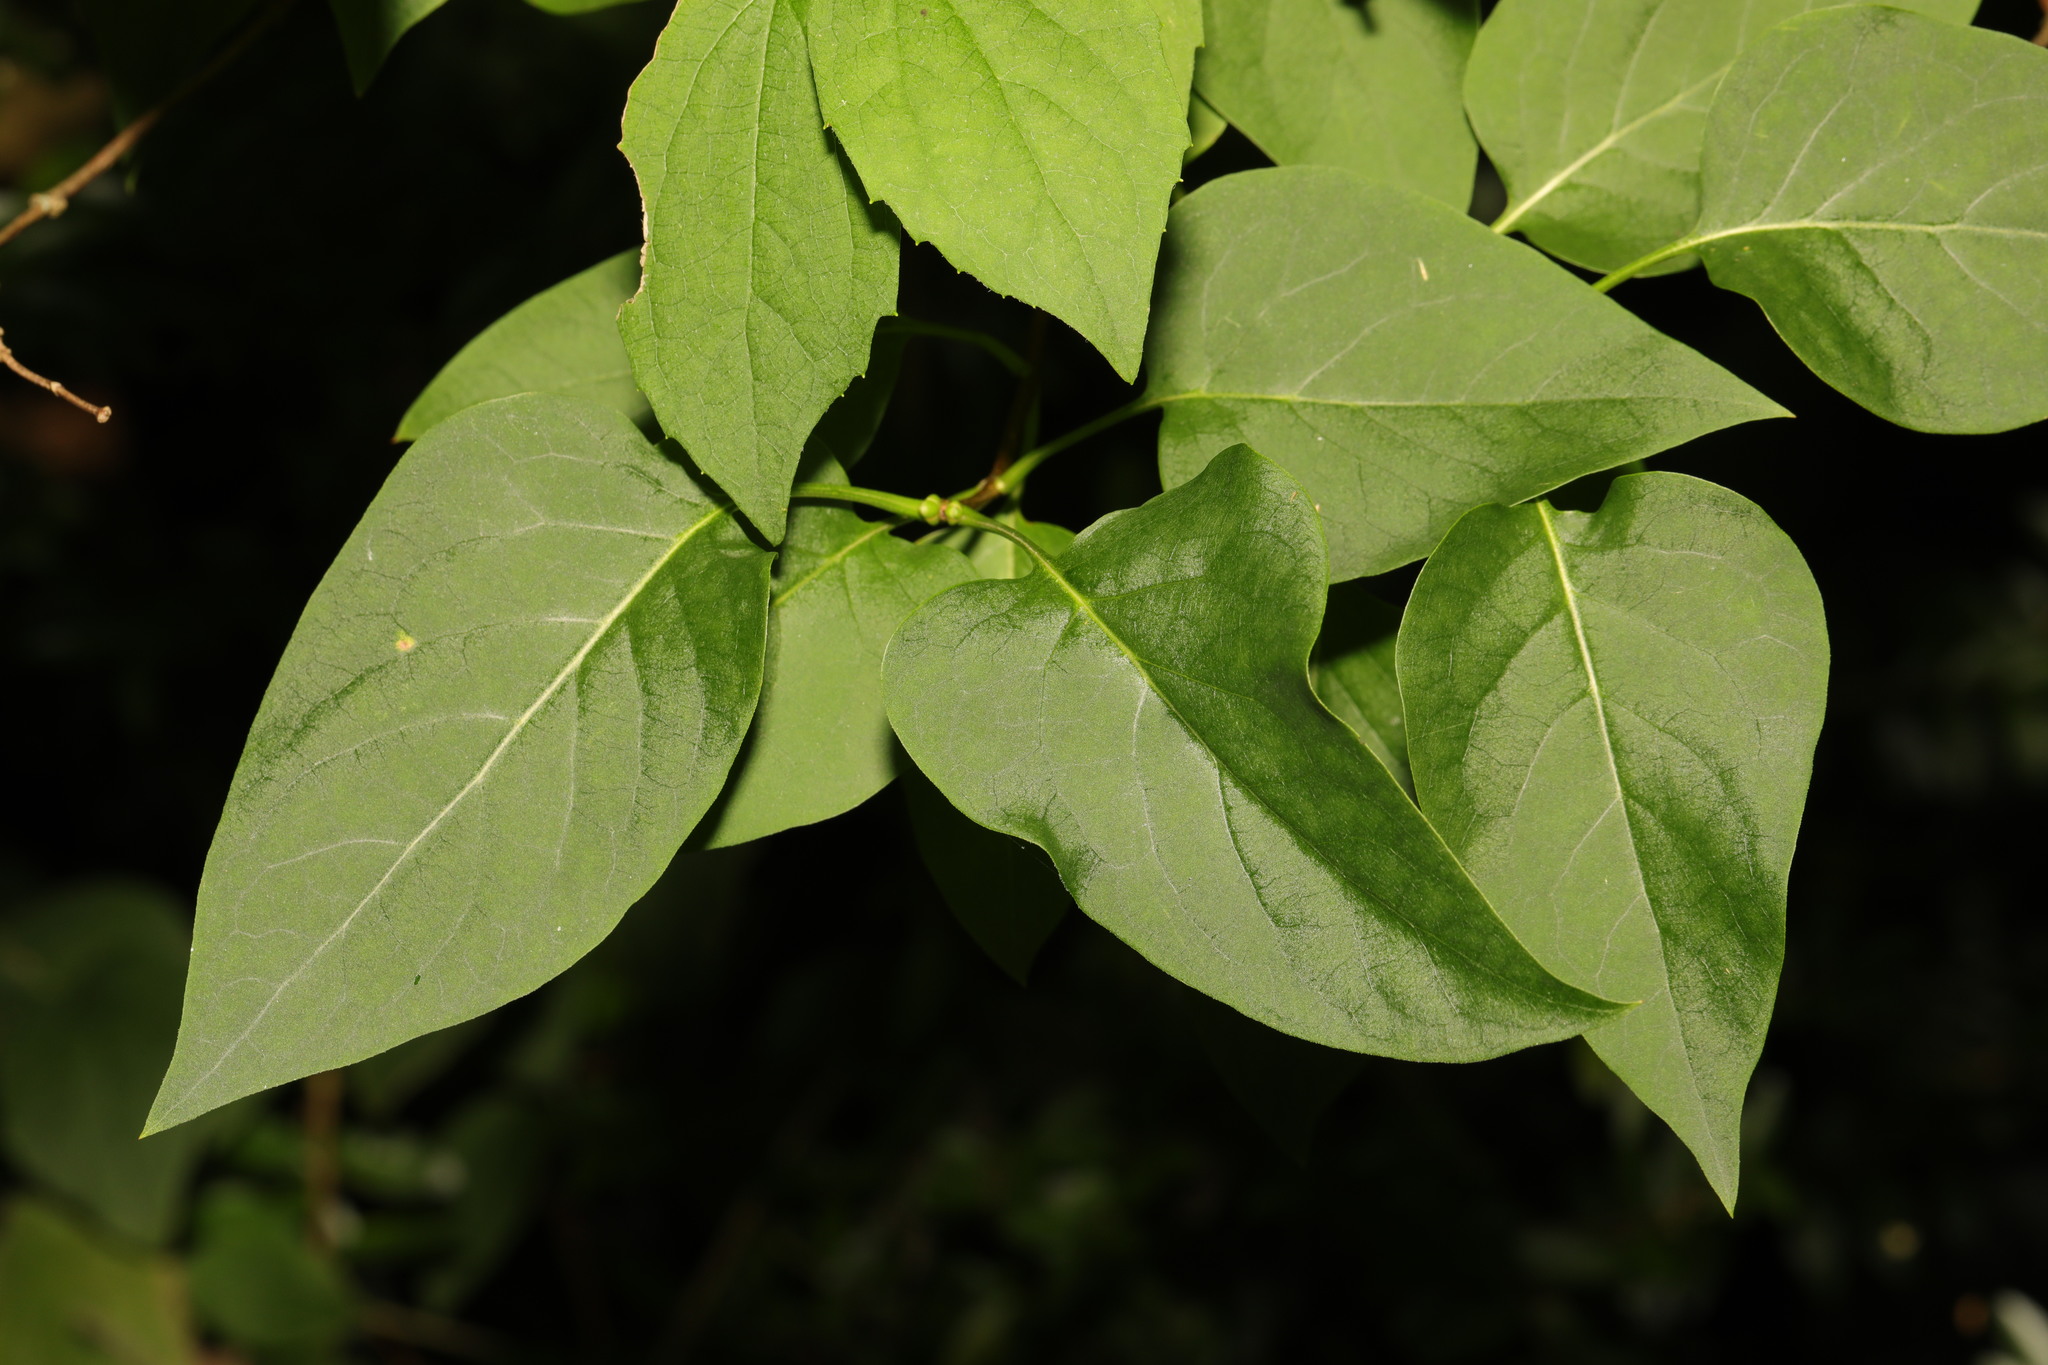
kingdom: Plantae
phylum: Tracheophyta
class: Magnoliopsida
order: Lamiales
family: Oleaceae
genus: Syringa
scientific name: Syringa vulgaris
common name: Common lilac
